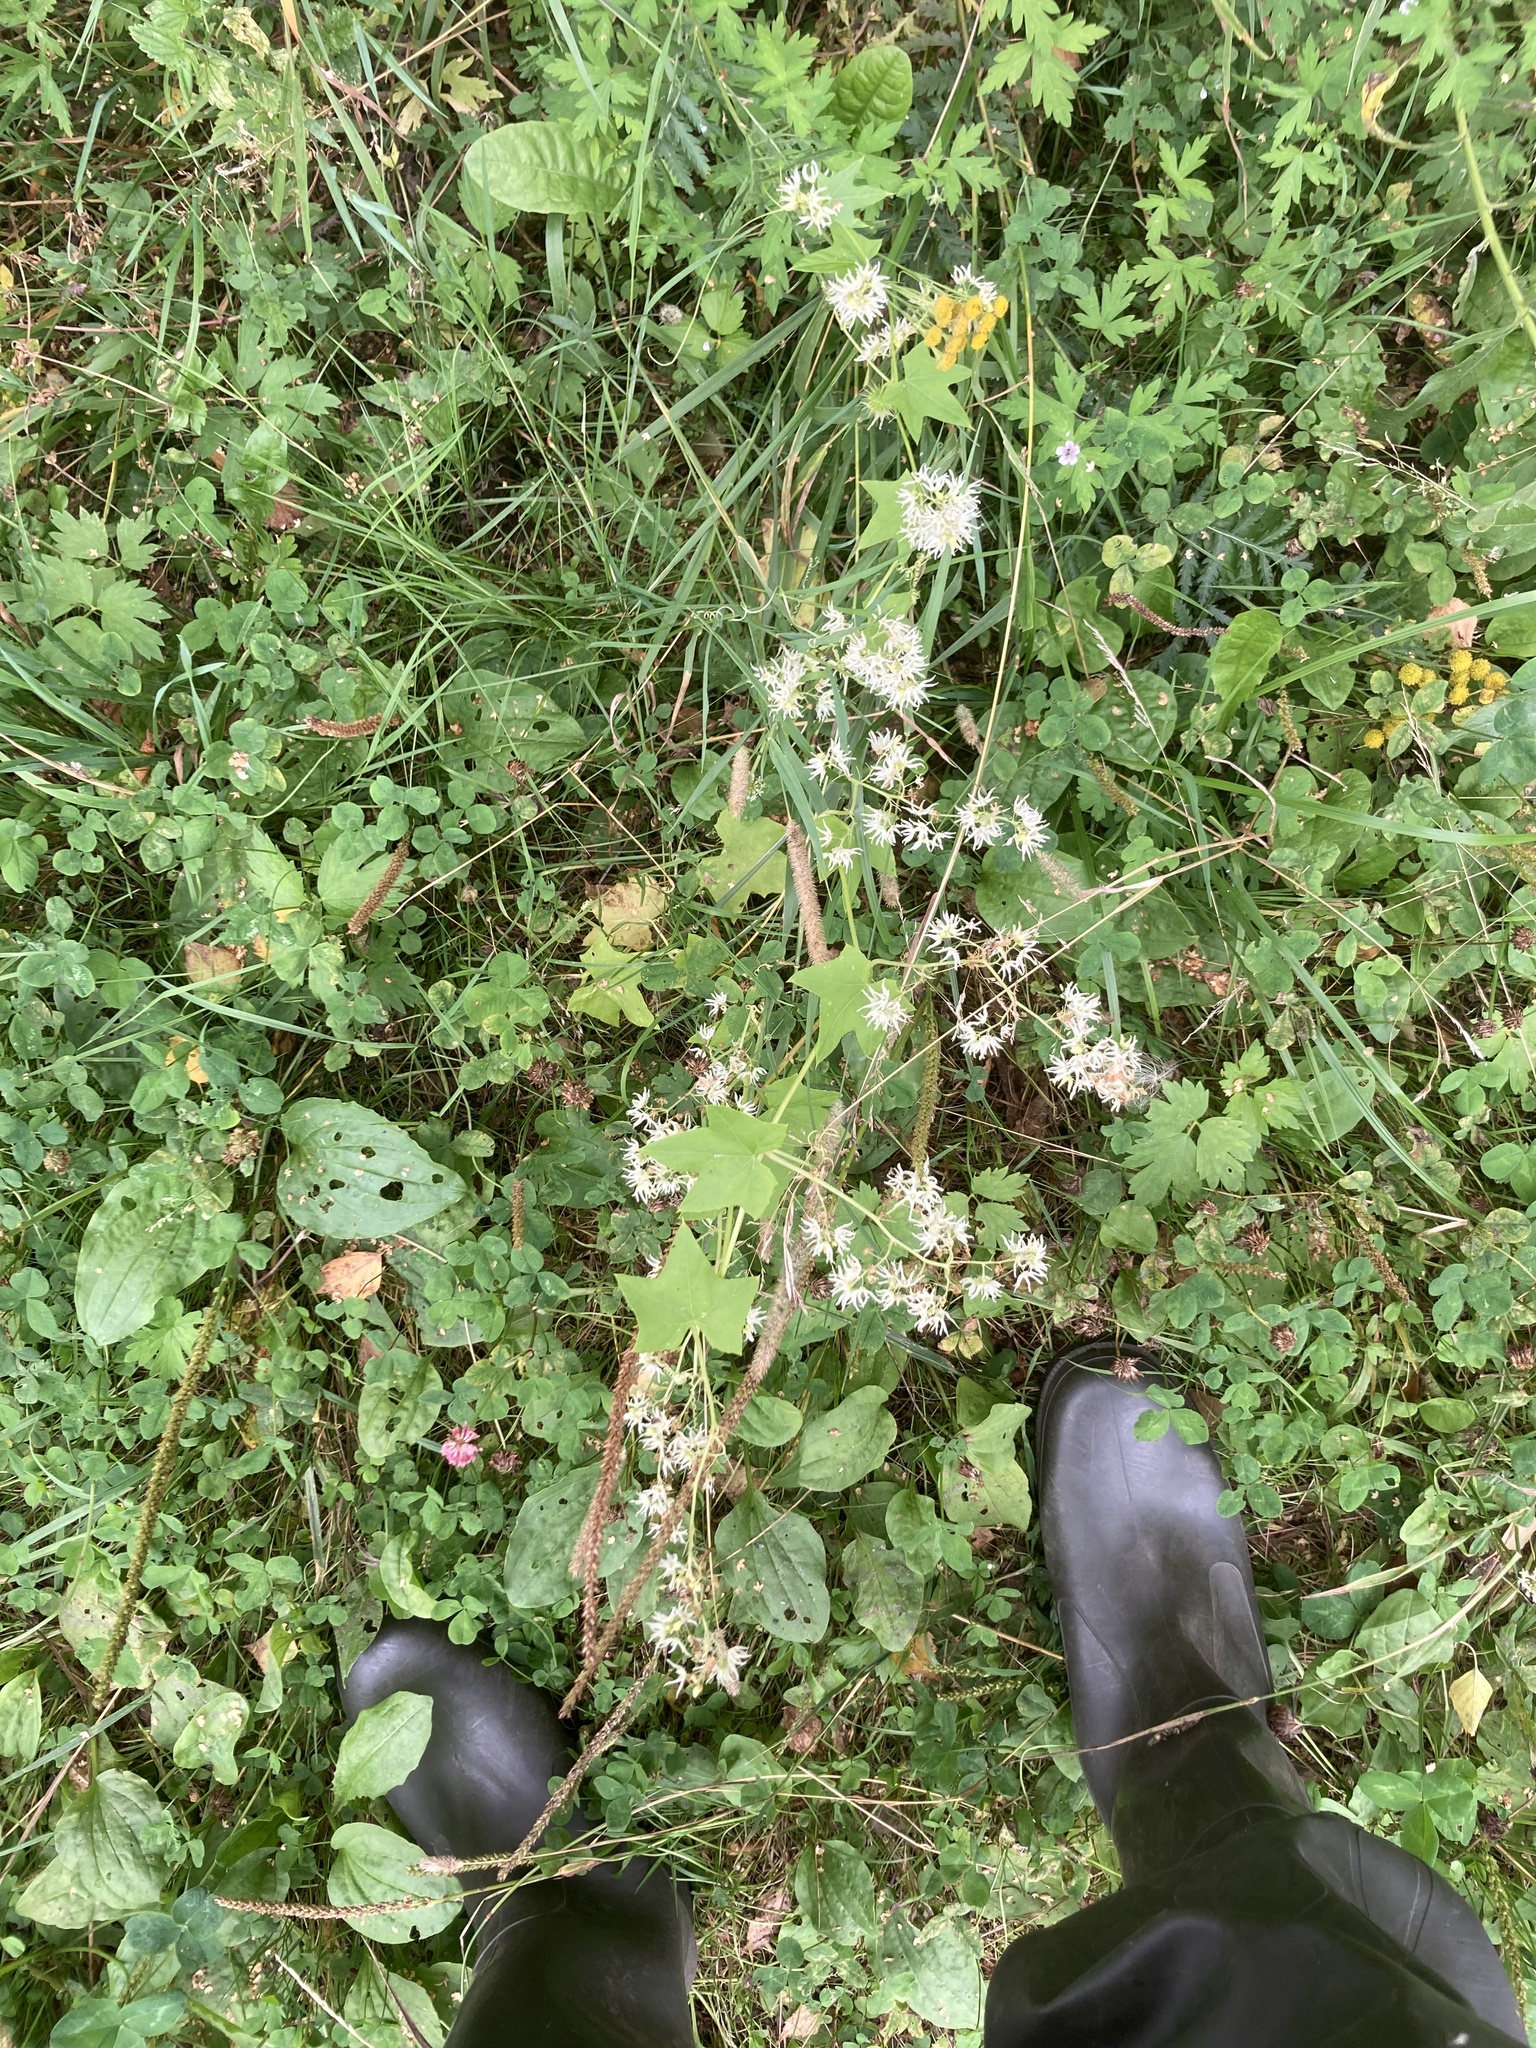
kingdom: Plantae
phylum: Tracheophyta
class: Magnoliopsida
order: Cucurbitales
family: Cucurbitaceae
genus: Echinocystis
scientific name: Echinocystis lobata
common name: Wild cucumber
